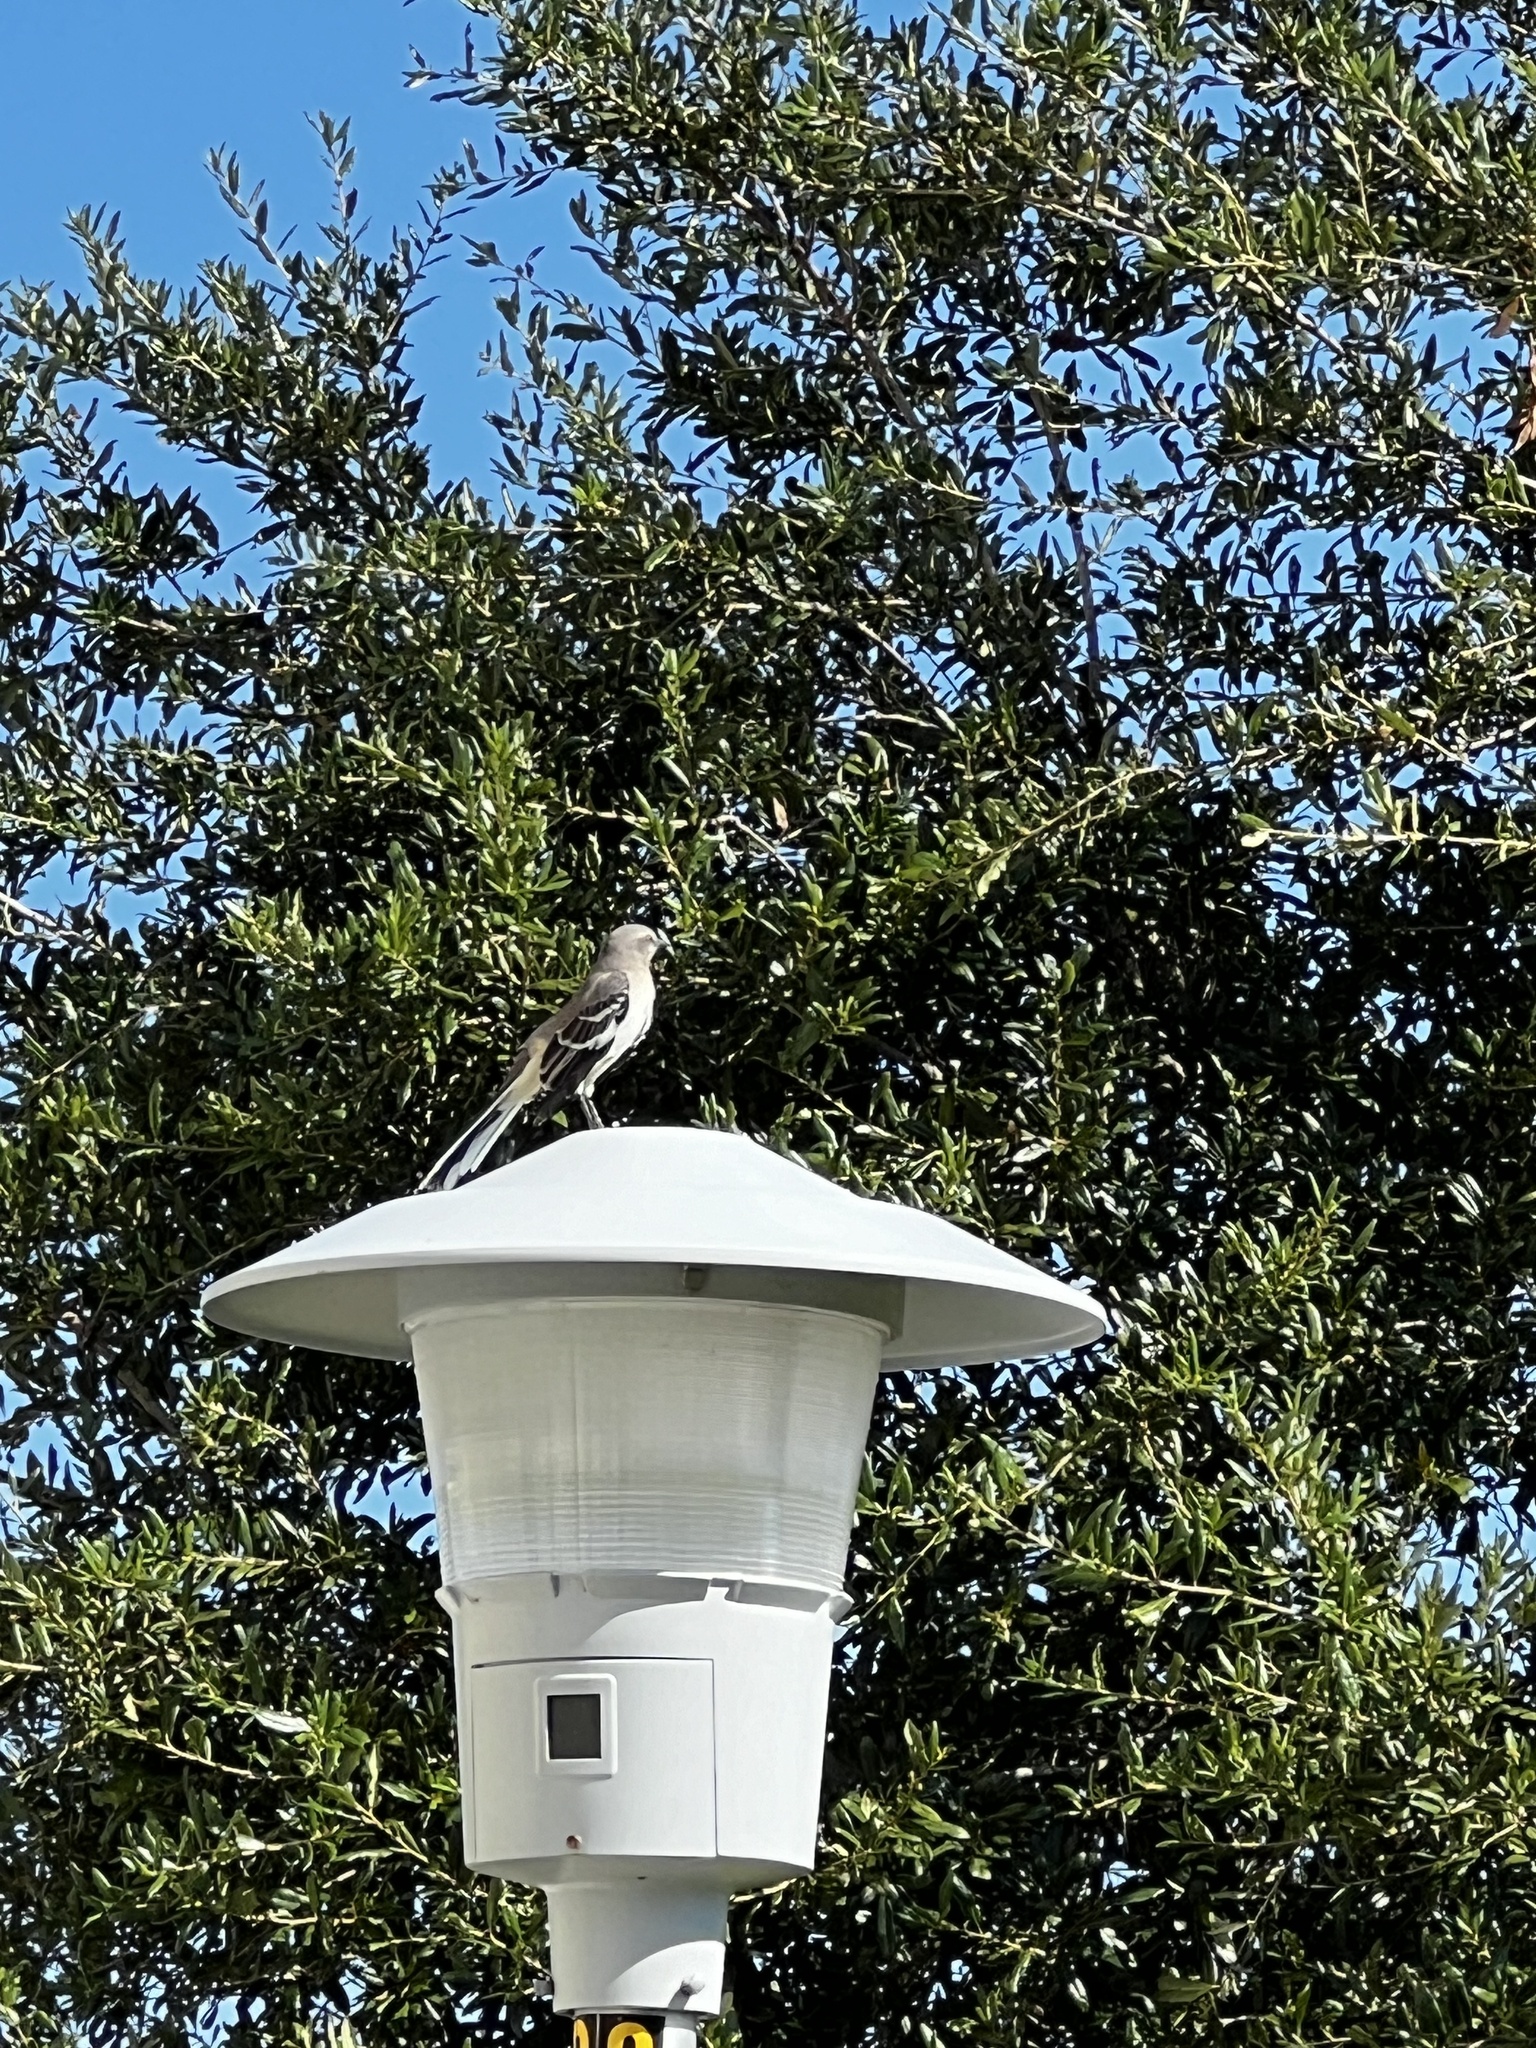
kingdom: Animalia
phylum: Chordata
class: Aves
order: Passeriformes
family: Mimidae
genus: Mimus
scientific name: Mimus polyglottos
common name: Northern mockingbird
